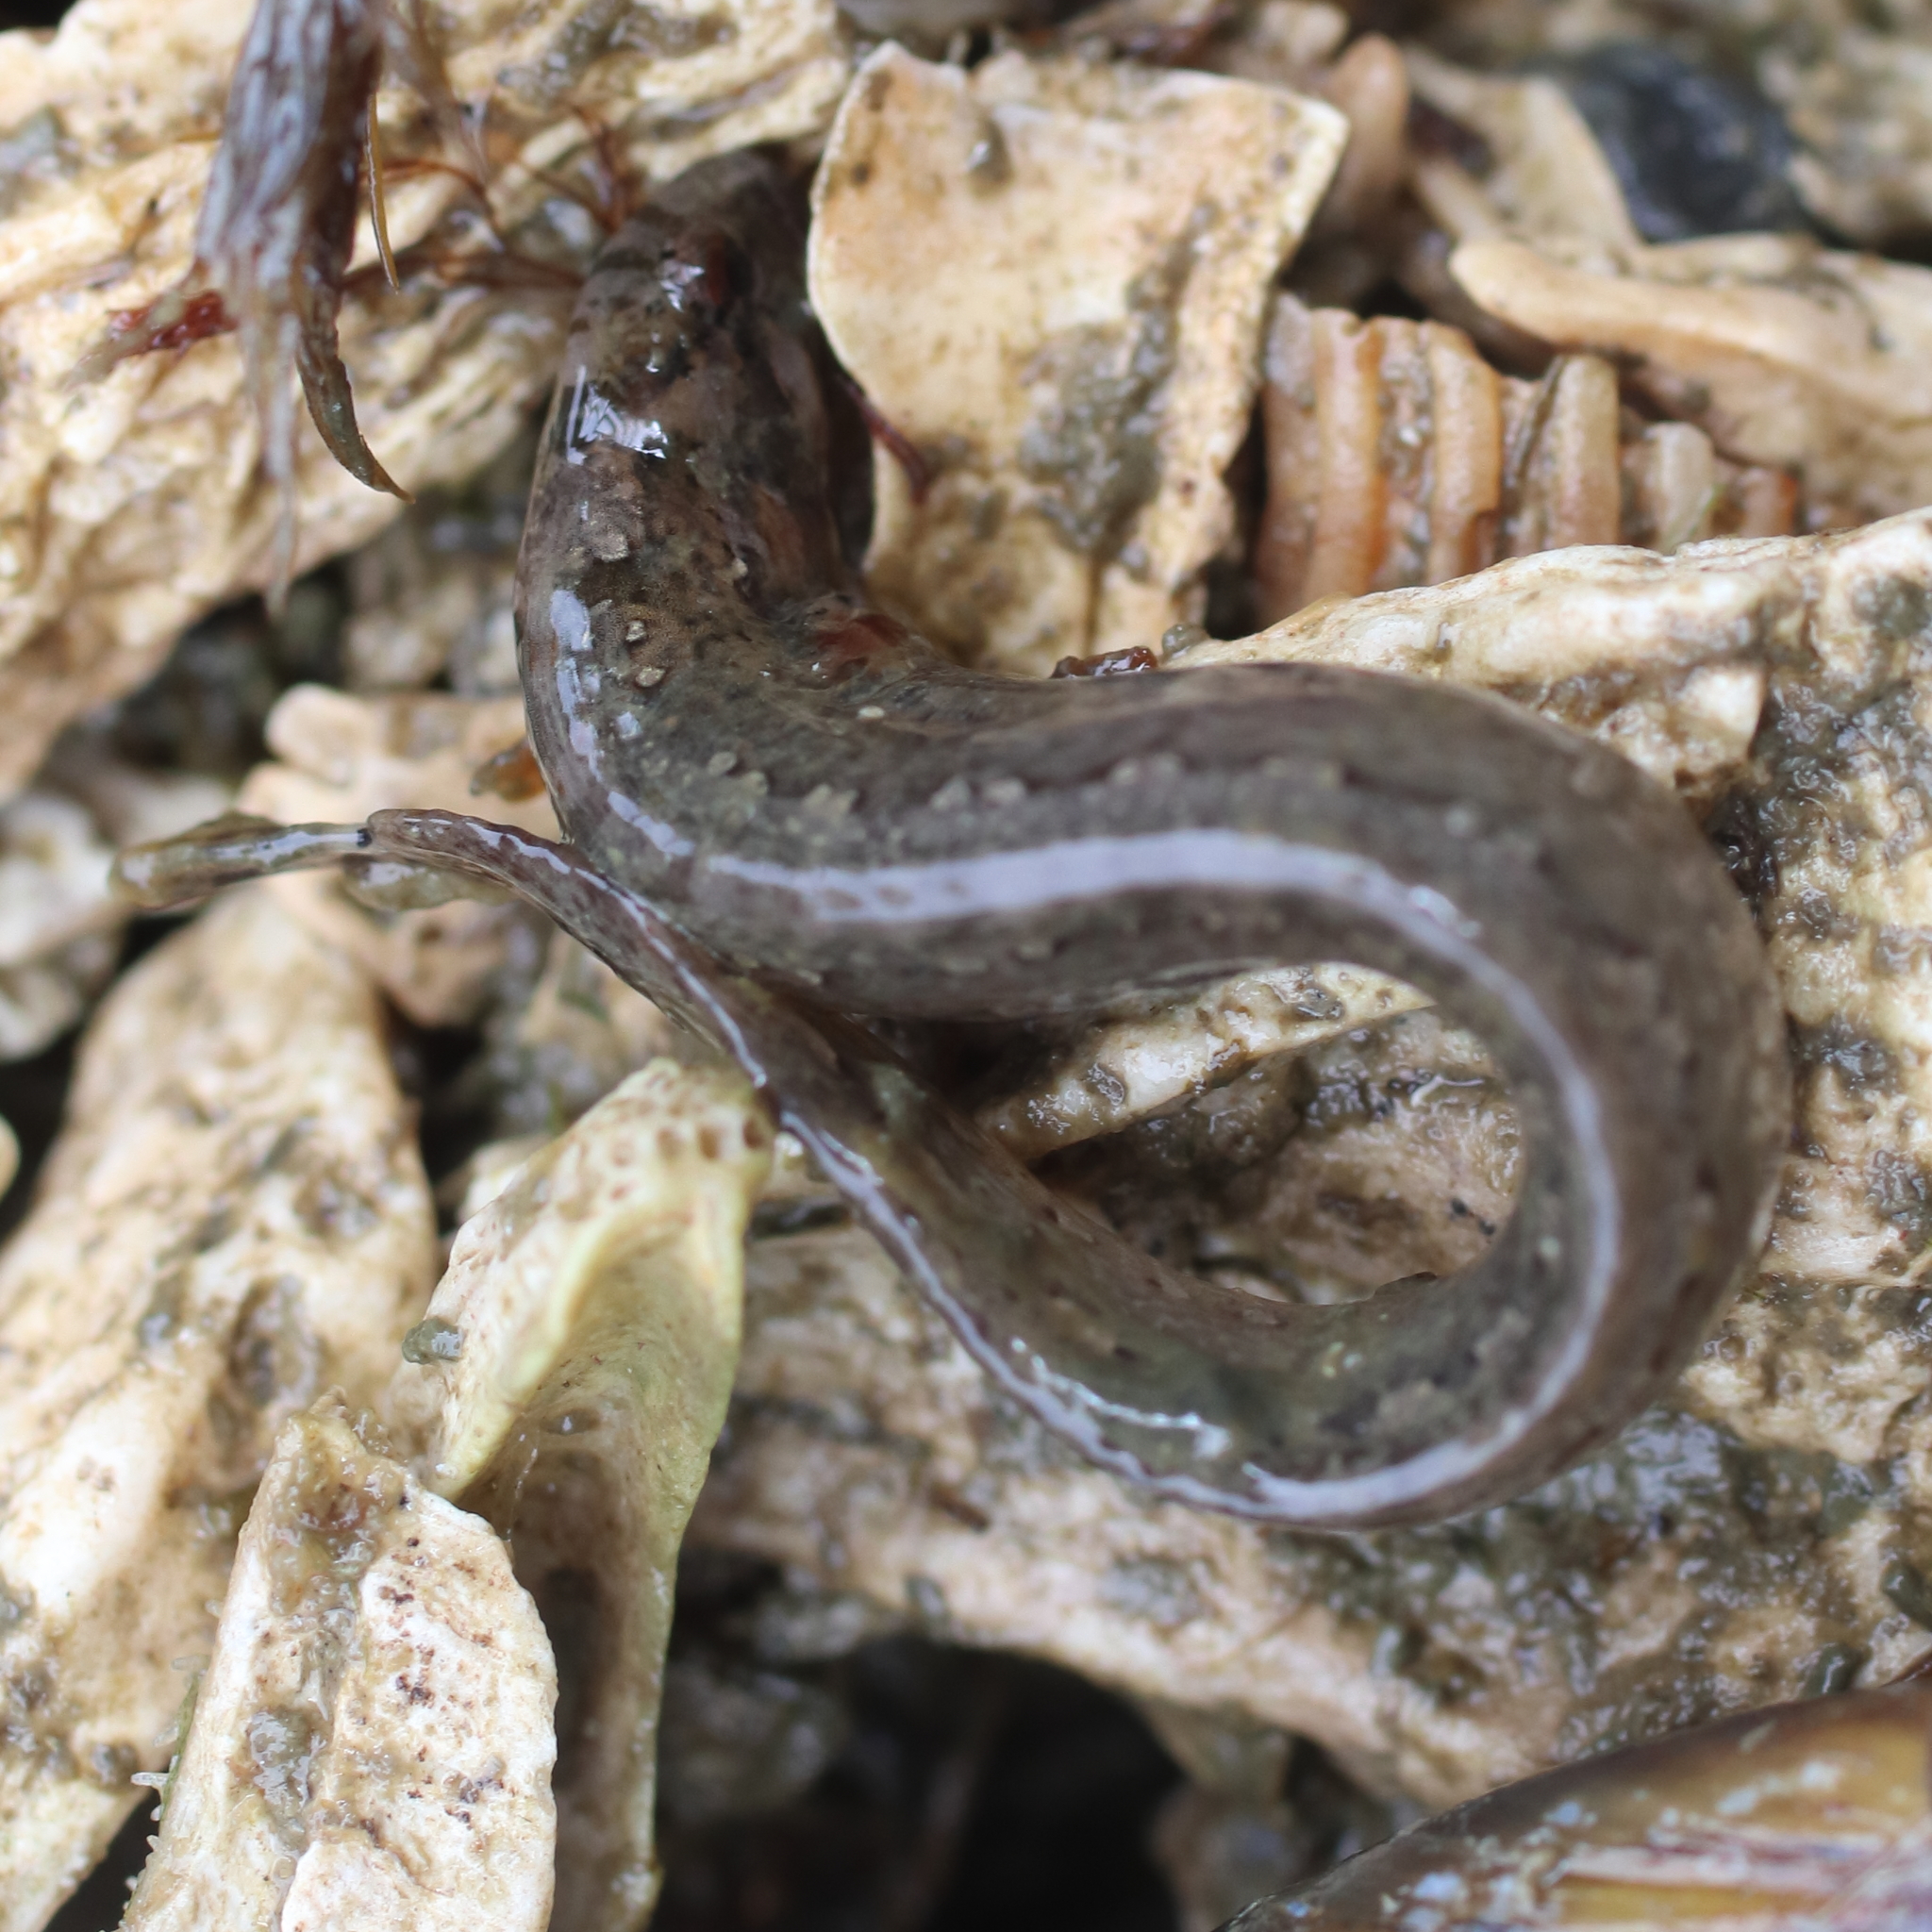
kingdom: Animalia
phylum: Chordata
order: Perciformes
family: Stichaeidae
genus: Anoplarchus
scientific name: Anoplarchus purpurescens
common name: High cockscomb
